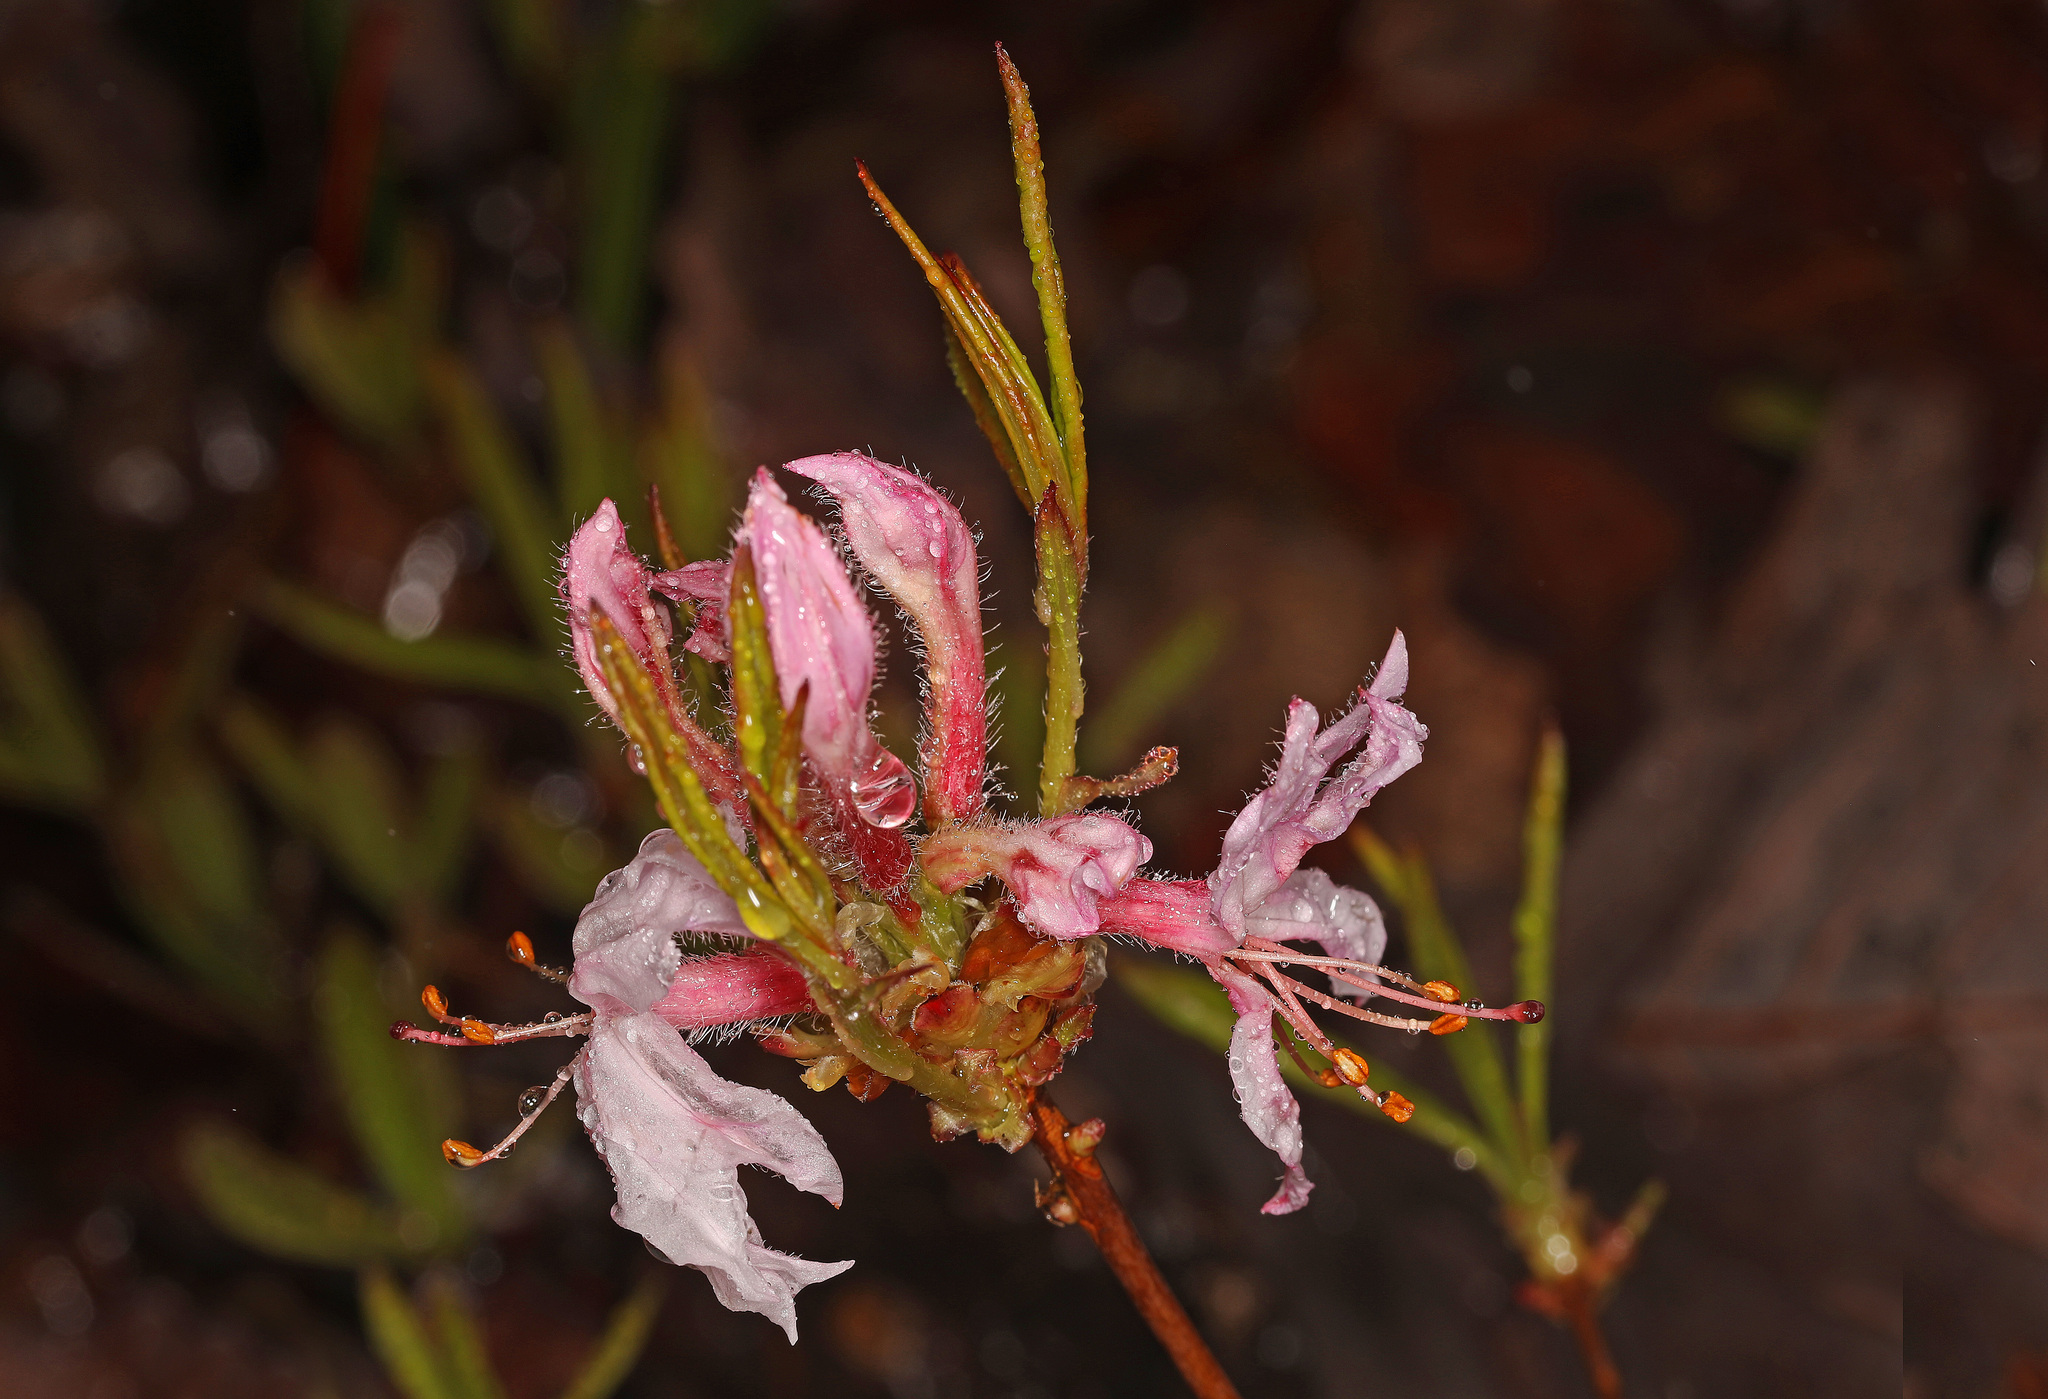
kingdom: Plantae
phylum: Tracheophyta
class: Magnoliopsida
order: Ericales
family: Ericaceae
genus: Rhododendron
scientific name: Rhododendron periclymenoides
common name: Election-pink
